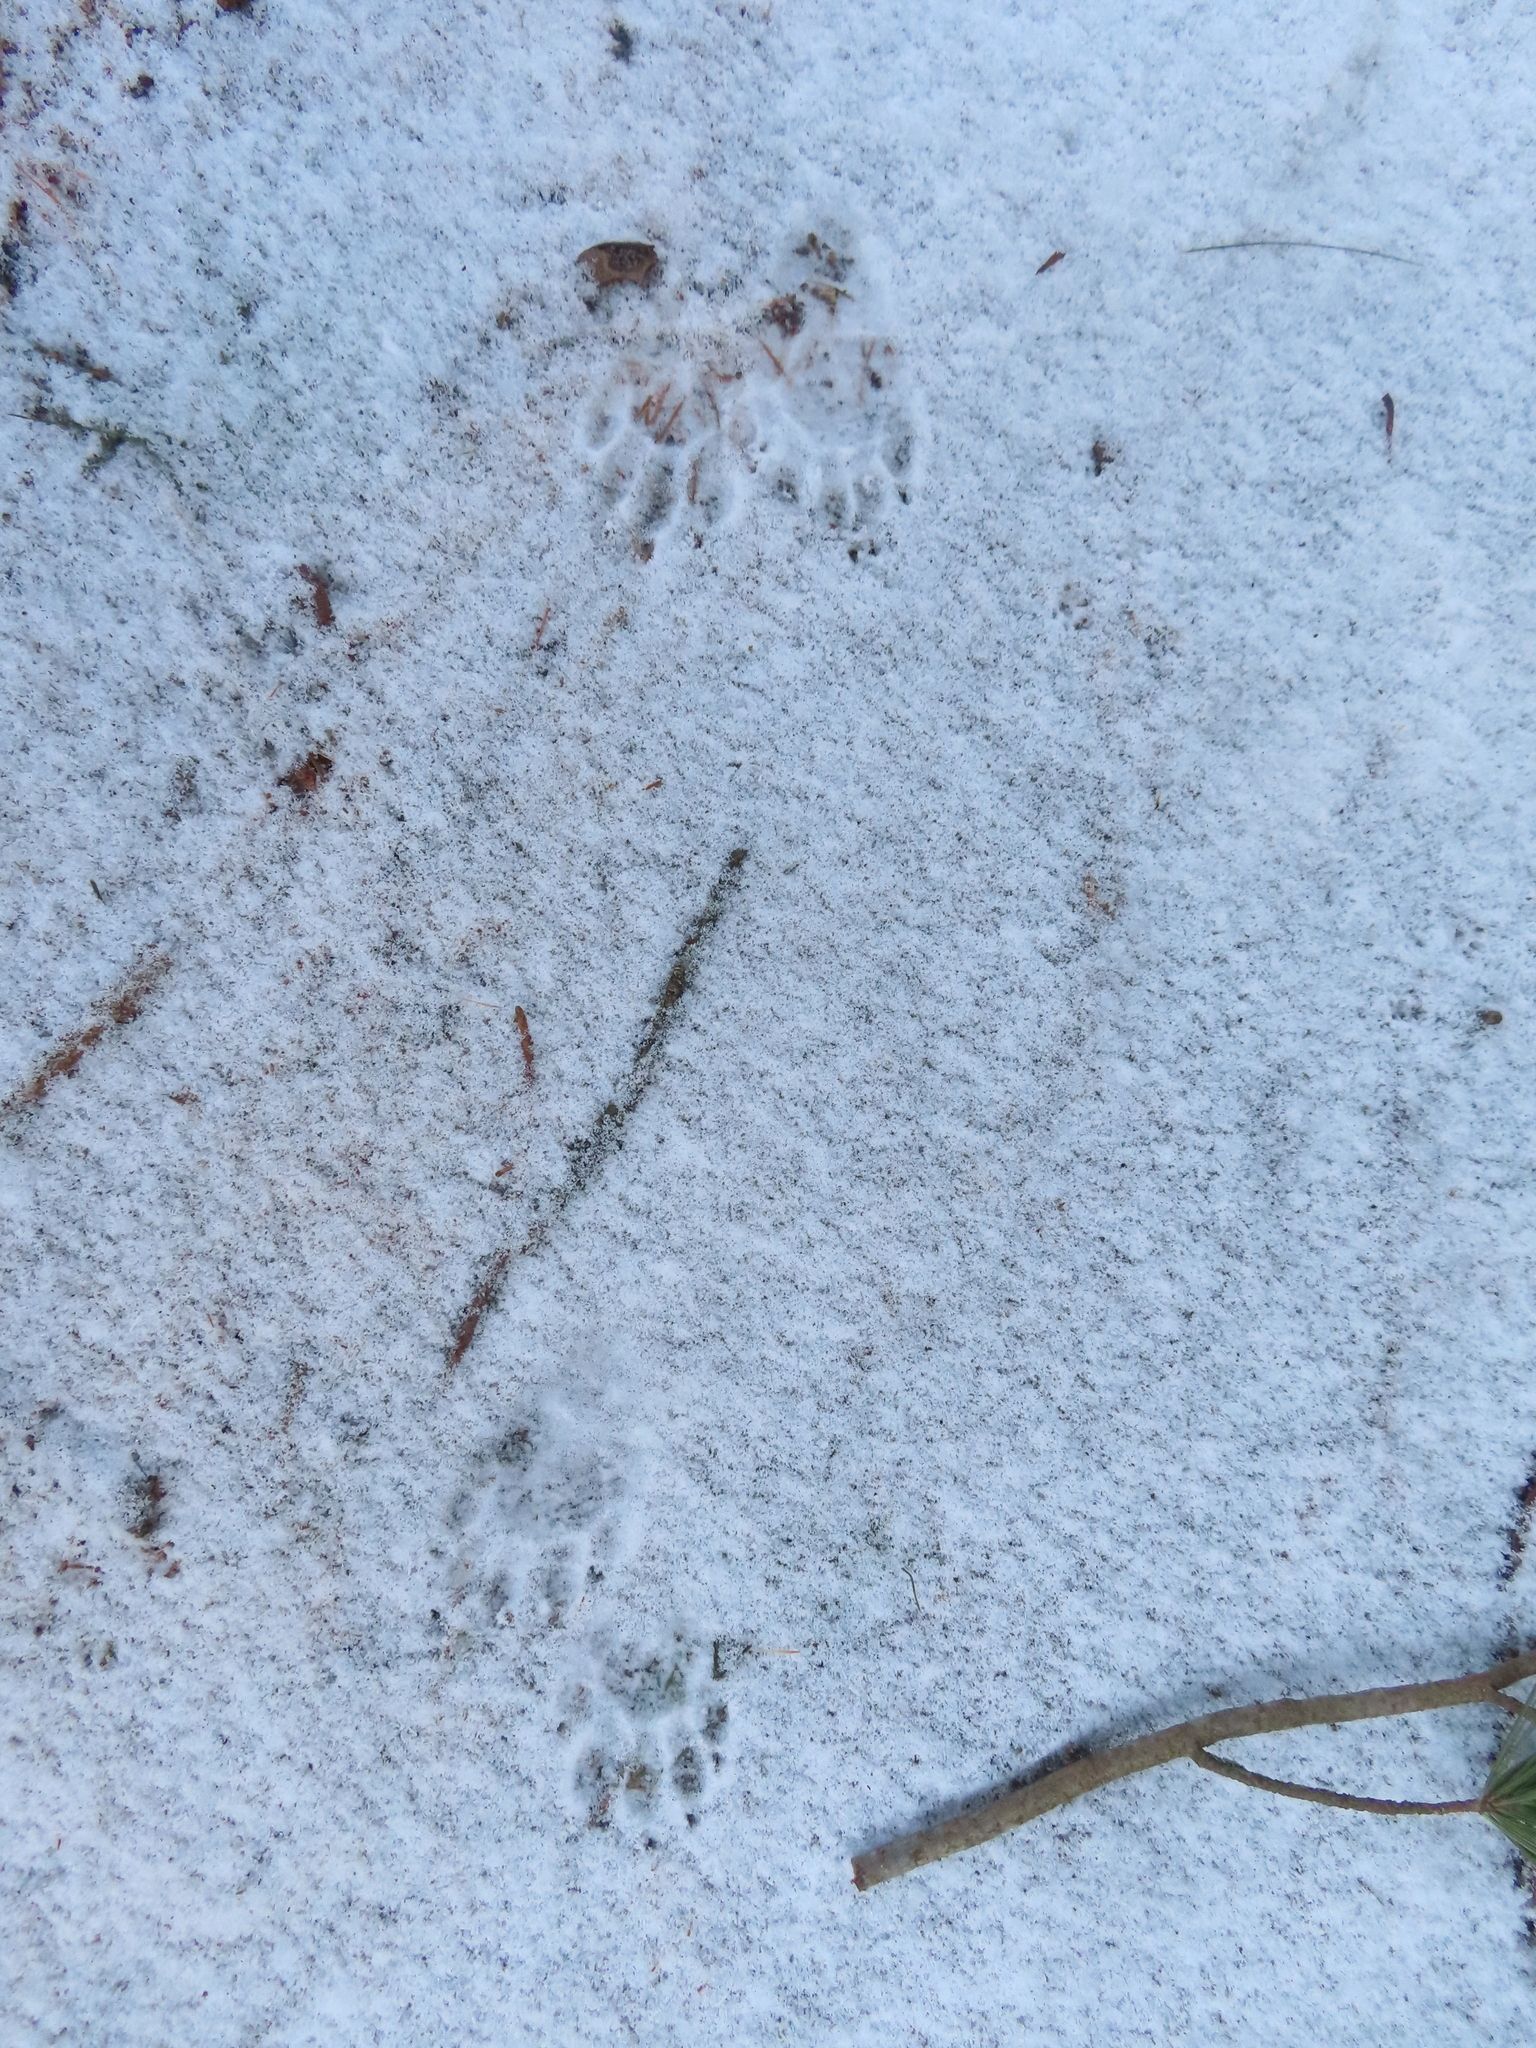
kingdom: Animalia
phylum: Chordata
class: Mammalia
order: Carnivora
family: Procyonidae
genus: Procyon
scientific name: Procyon lotor
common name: Raccoon
